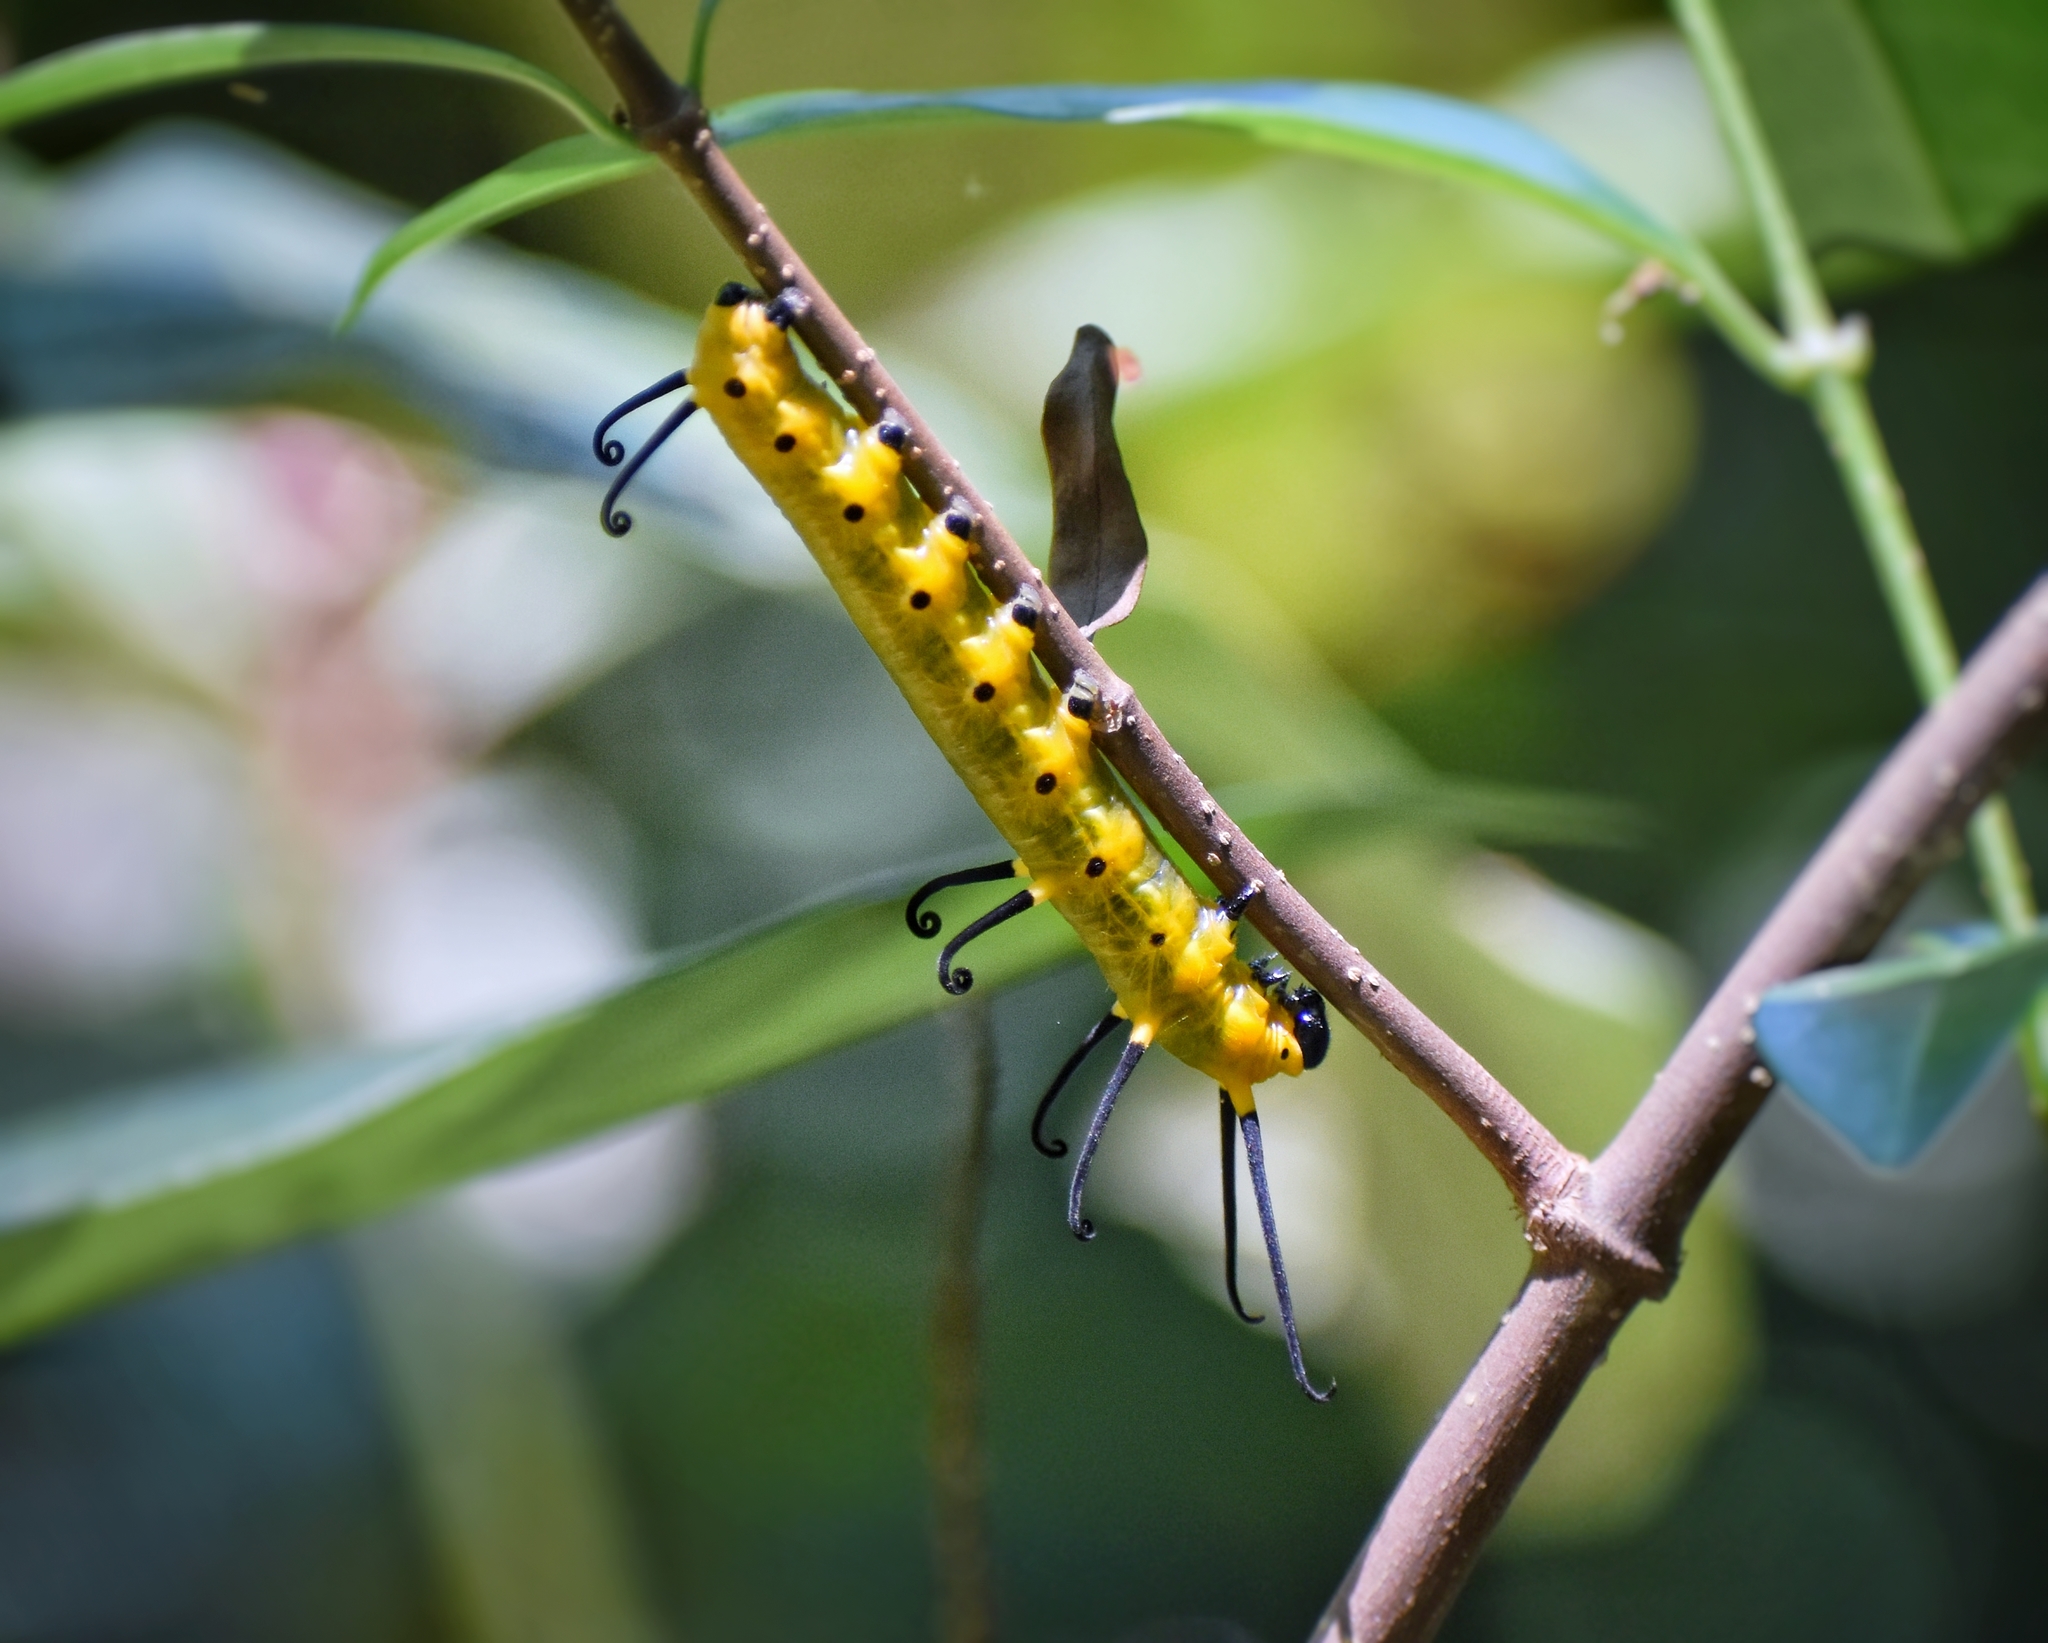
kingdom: Animalia
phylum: Arthropoda
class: Insecta
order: Lepidoptera
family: Nymphalidae
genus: Euploea
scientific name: Euploea midamus
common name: Blue-spotted crow butterfly
